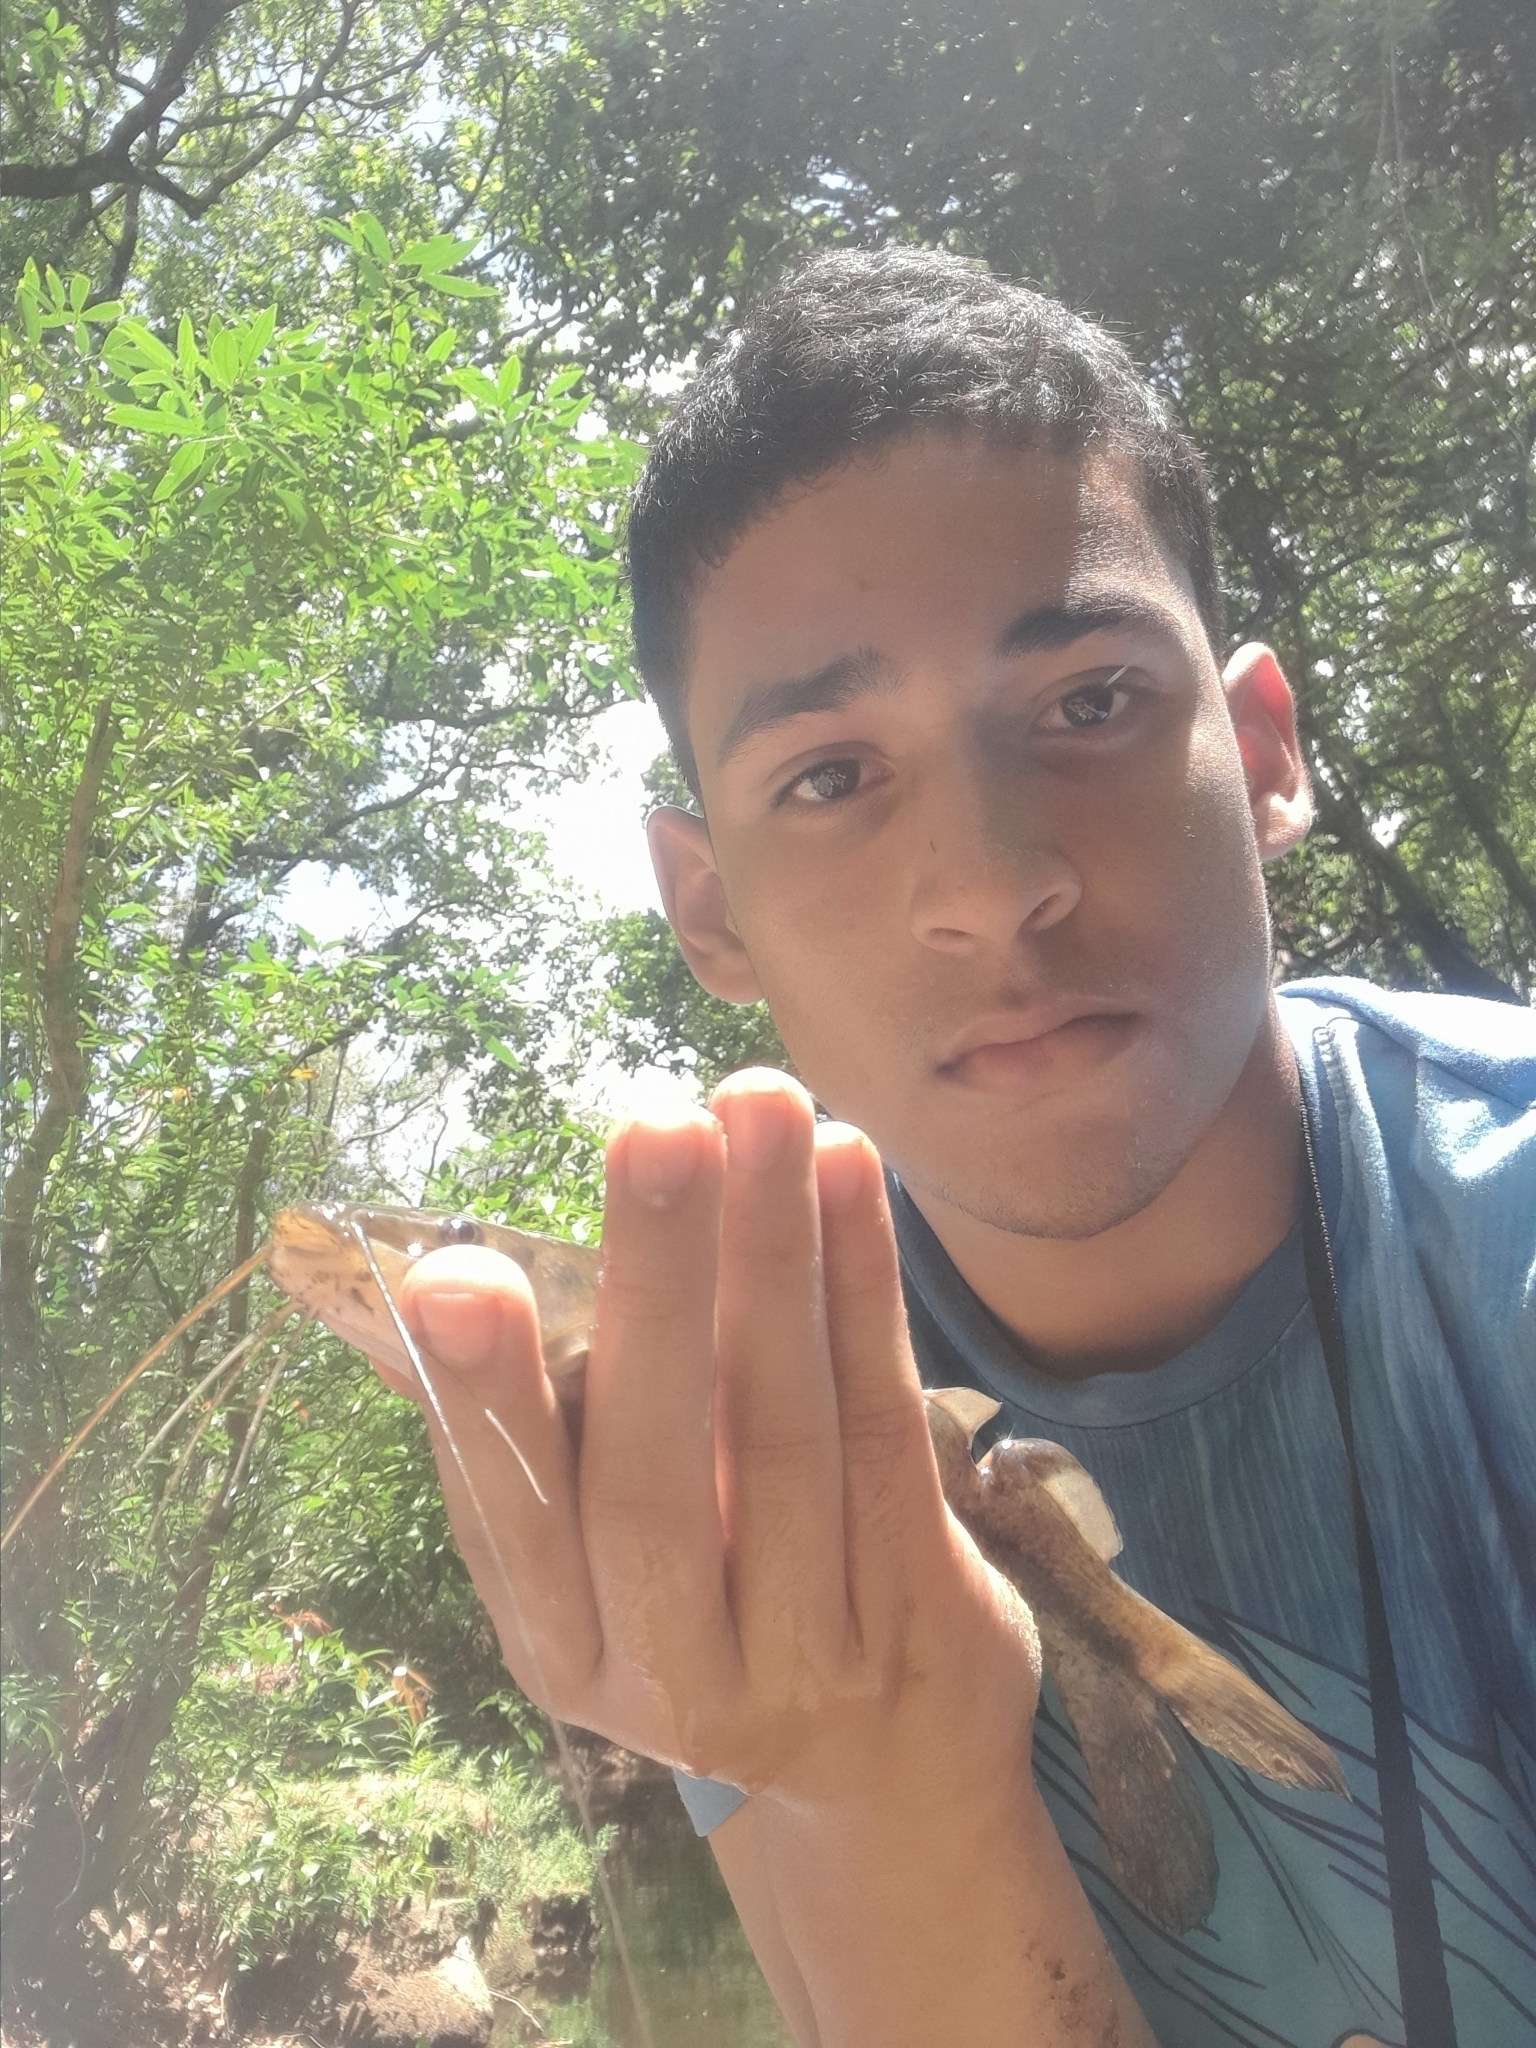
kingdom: Animalia
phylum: Chordata
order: Siluriformes
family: Heptapteridae
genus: Rhamdia
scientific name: Rhamdia guatemalensis
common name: Pale catfish
